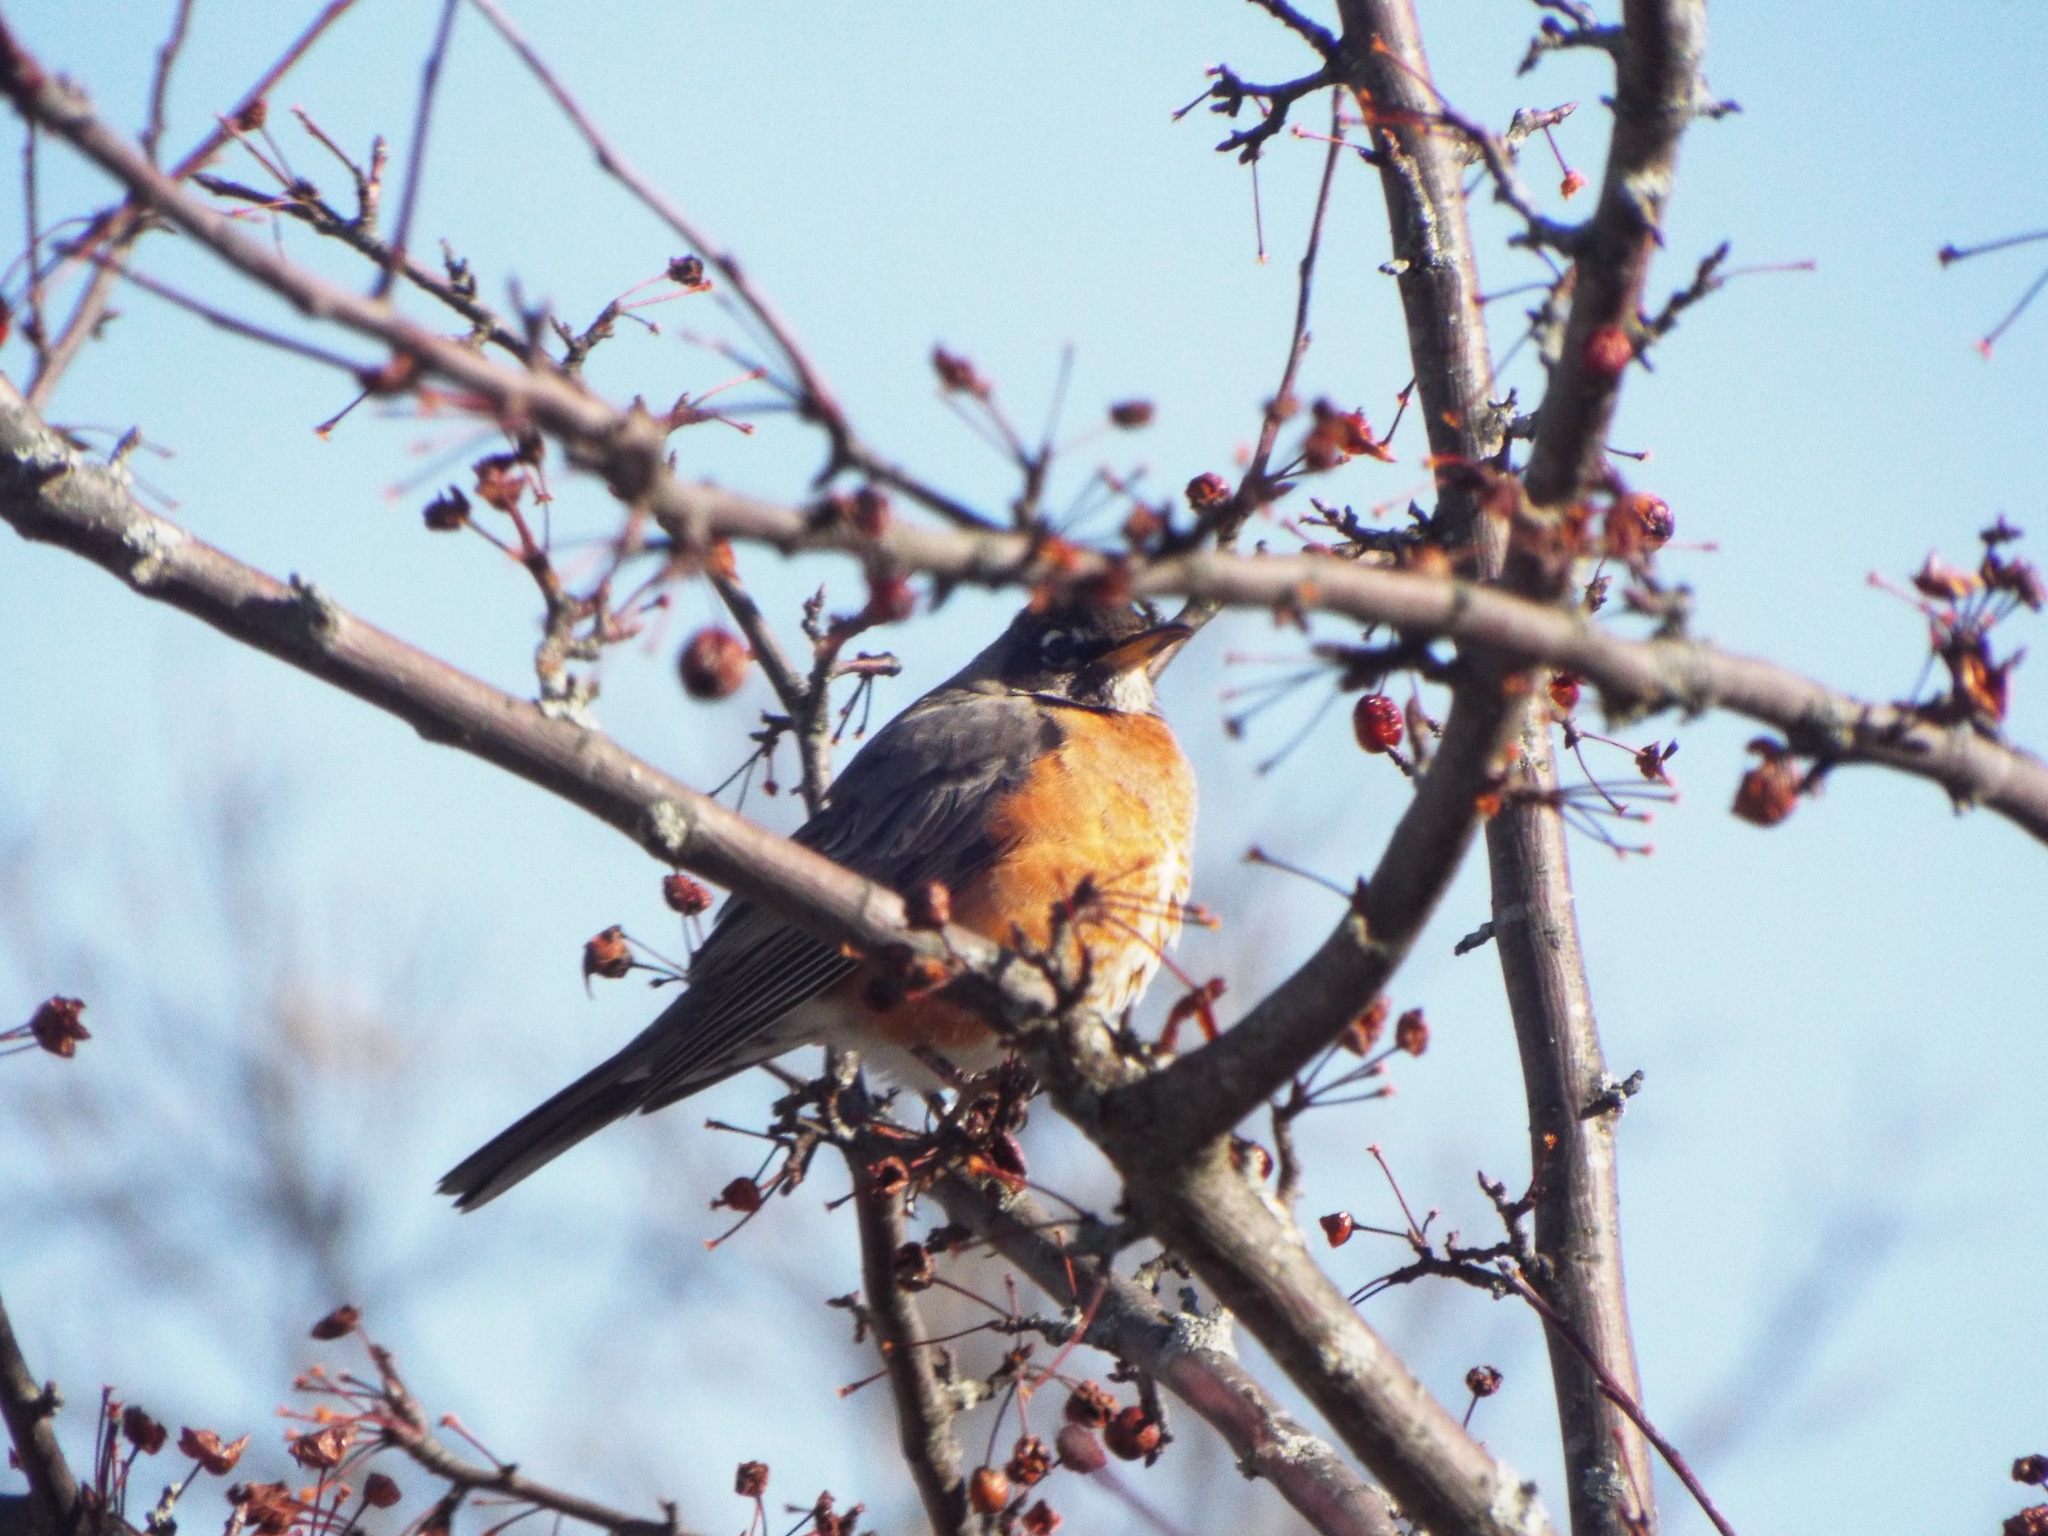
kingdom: Animalia
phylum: Chordata
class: Aves
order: Passeriformes
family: Turdidae
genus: Turdus
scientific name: Turdus migratorius
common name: American robin
